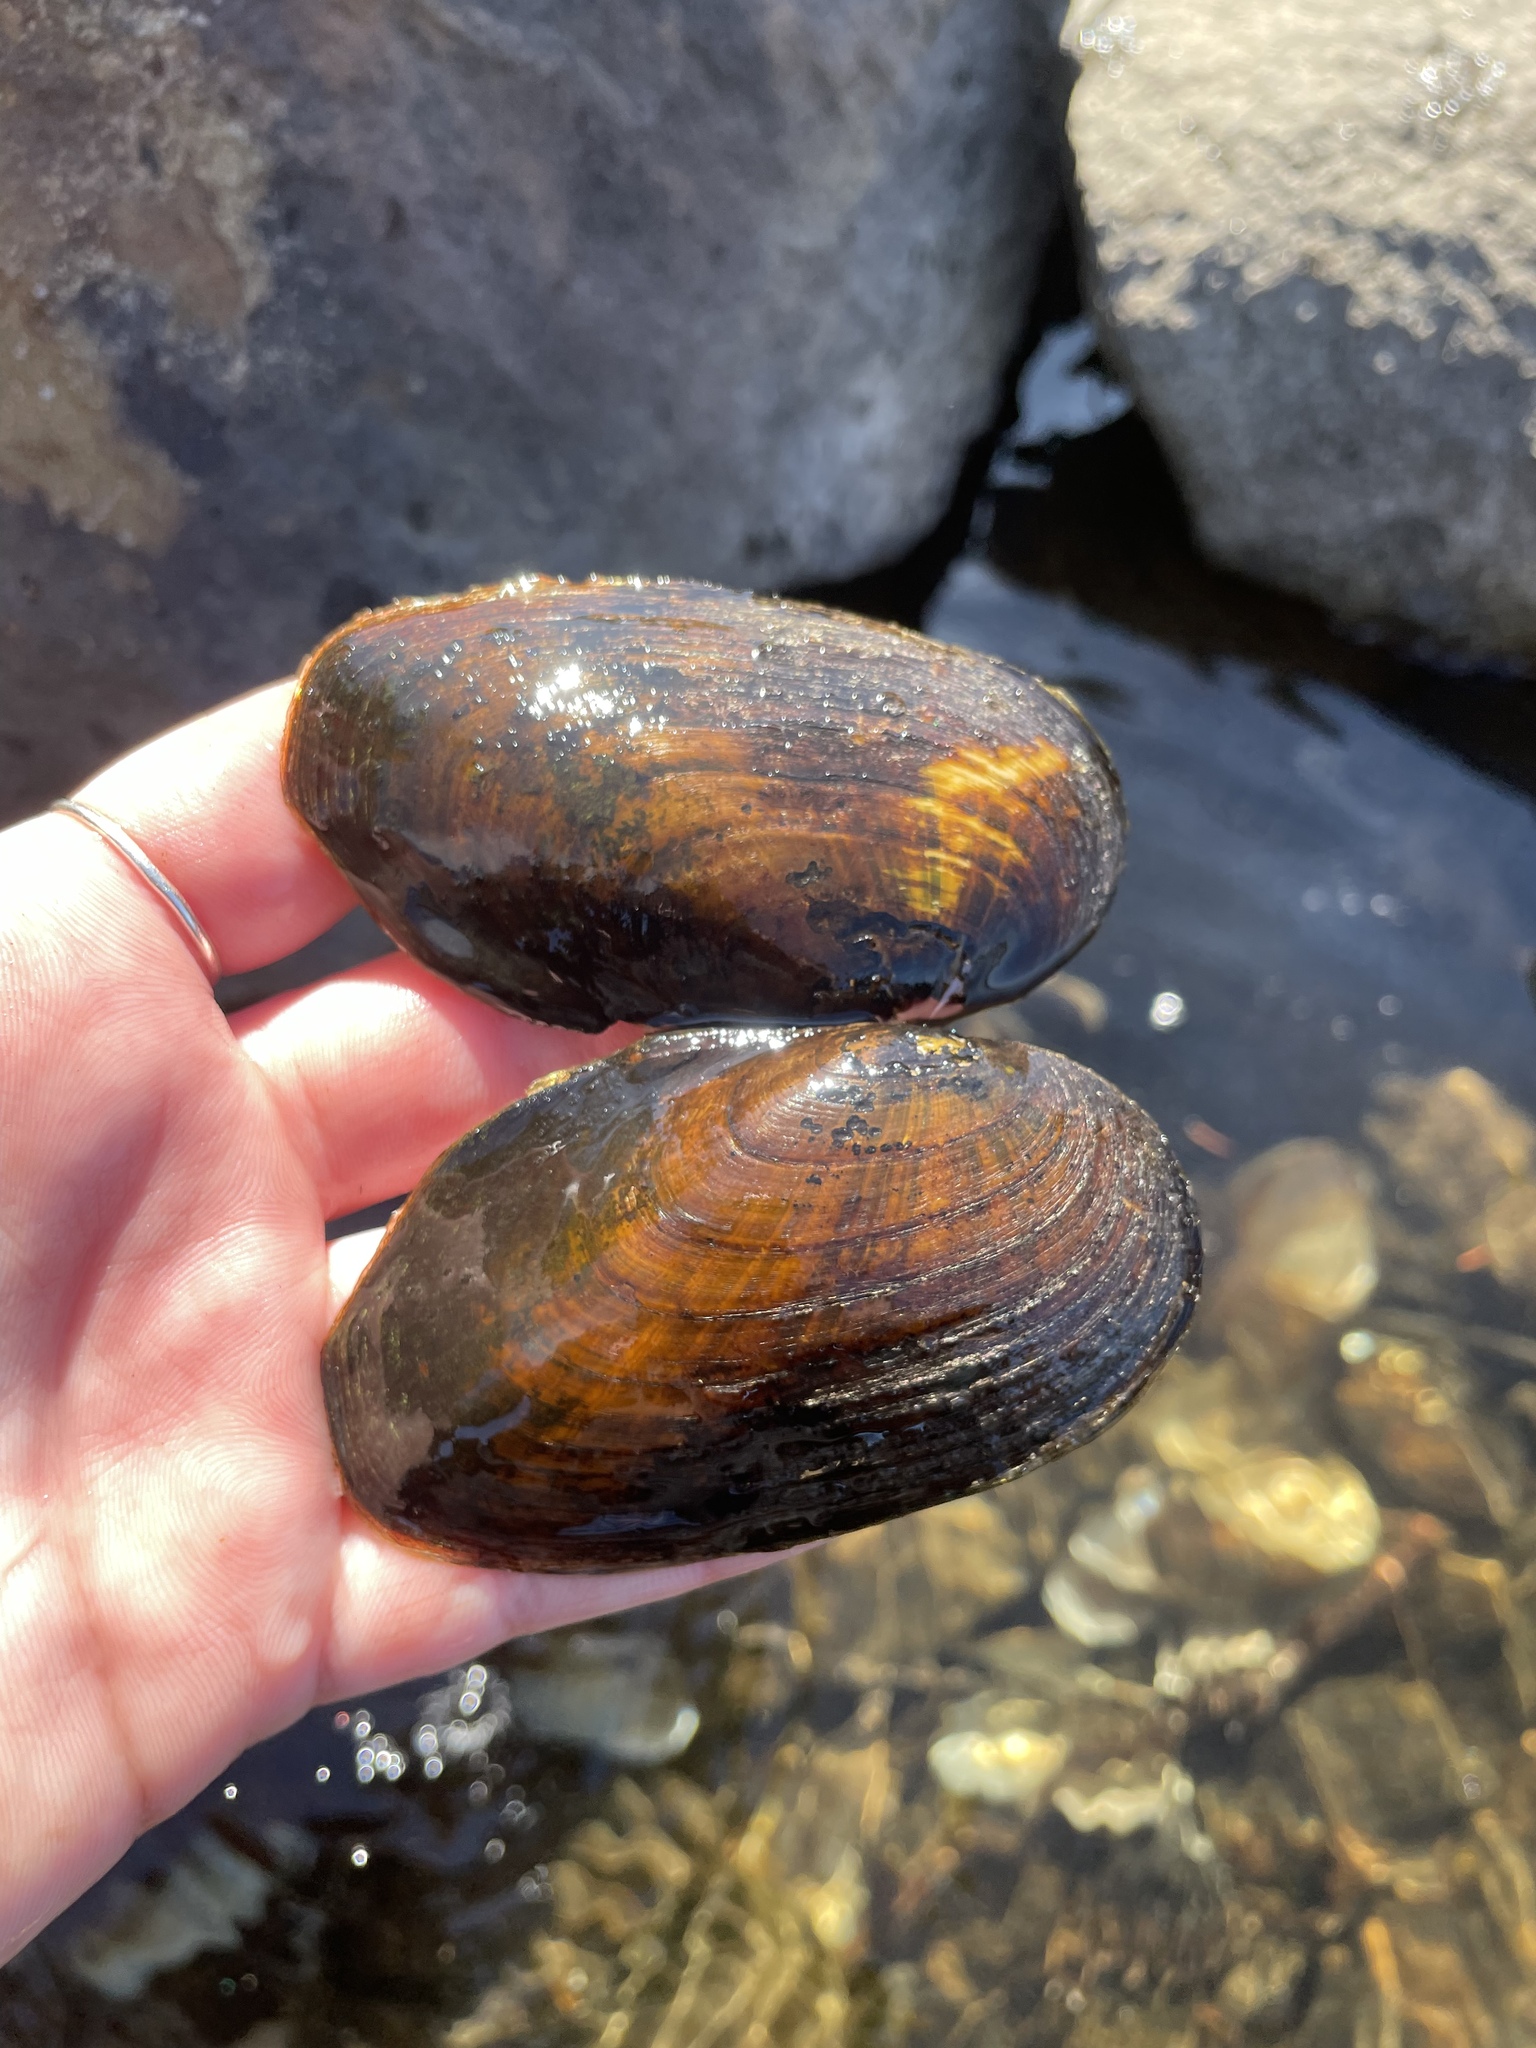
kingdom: Animalia
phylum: Mollusca
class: Bivalvia
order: Unionida
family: Unionidae
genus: Elliptio
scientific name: Elliptio complanata
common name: Eastern elliptio
